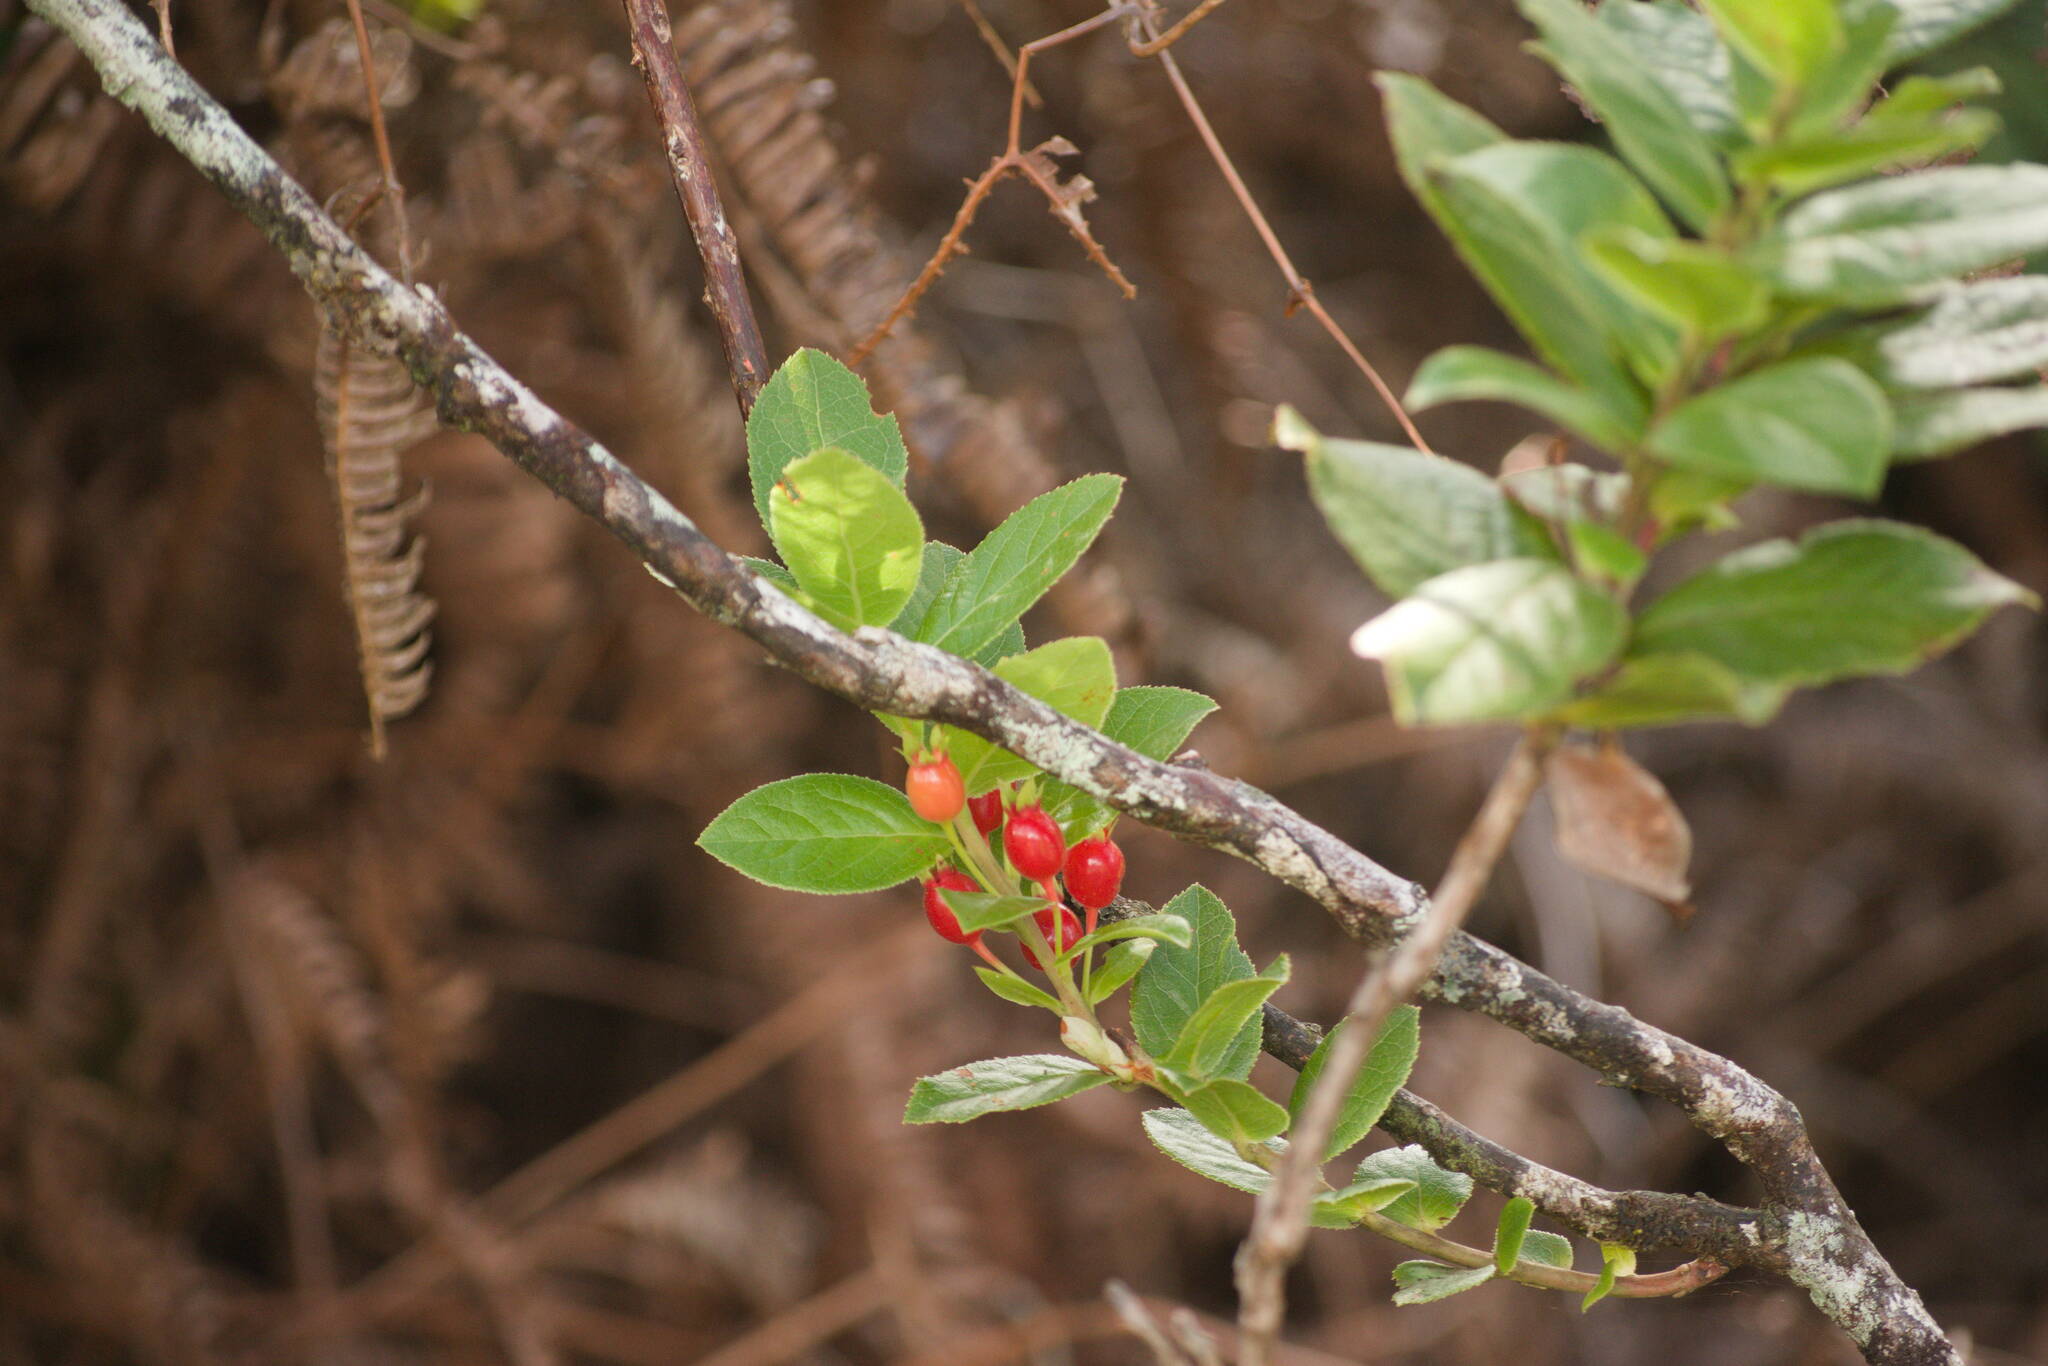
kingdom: Plantae
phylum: Tracheophyta
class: Magnoliopsida
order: Ericales
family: Ericaceae
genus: Vaccinium
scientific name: Vaccinium calycinum
